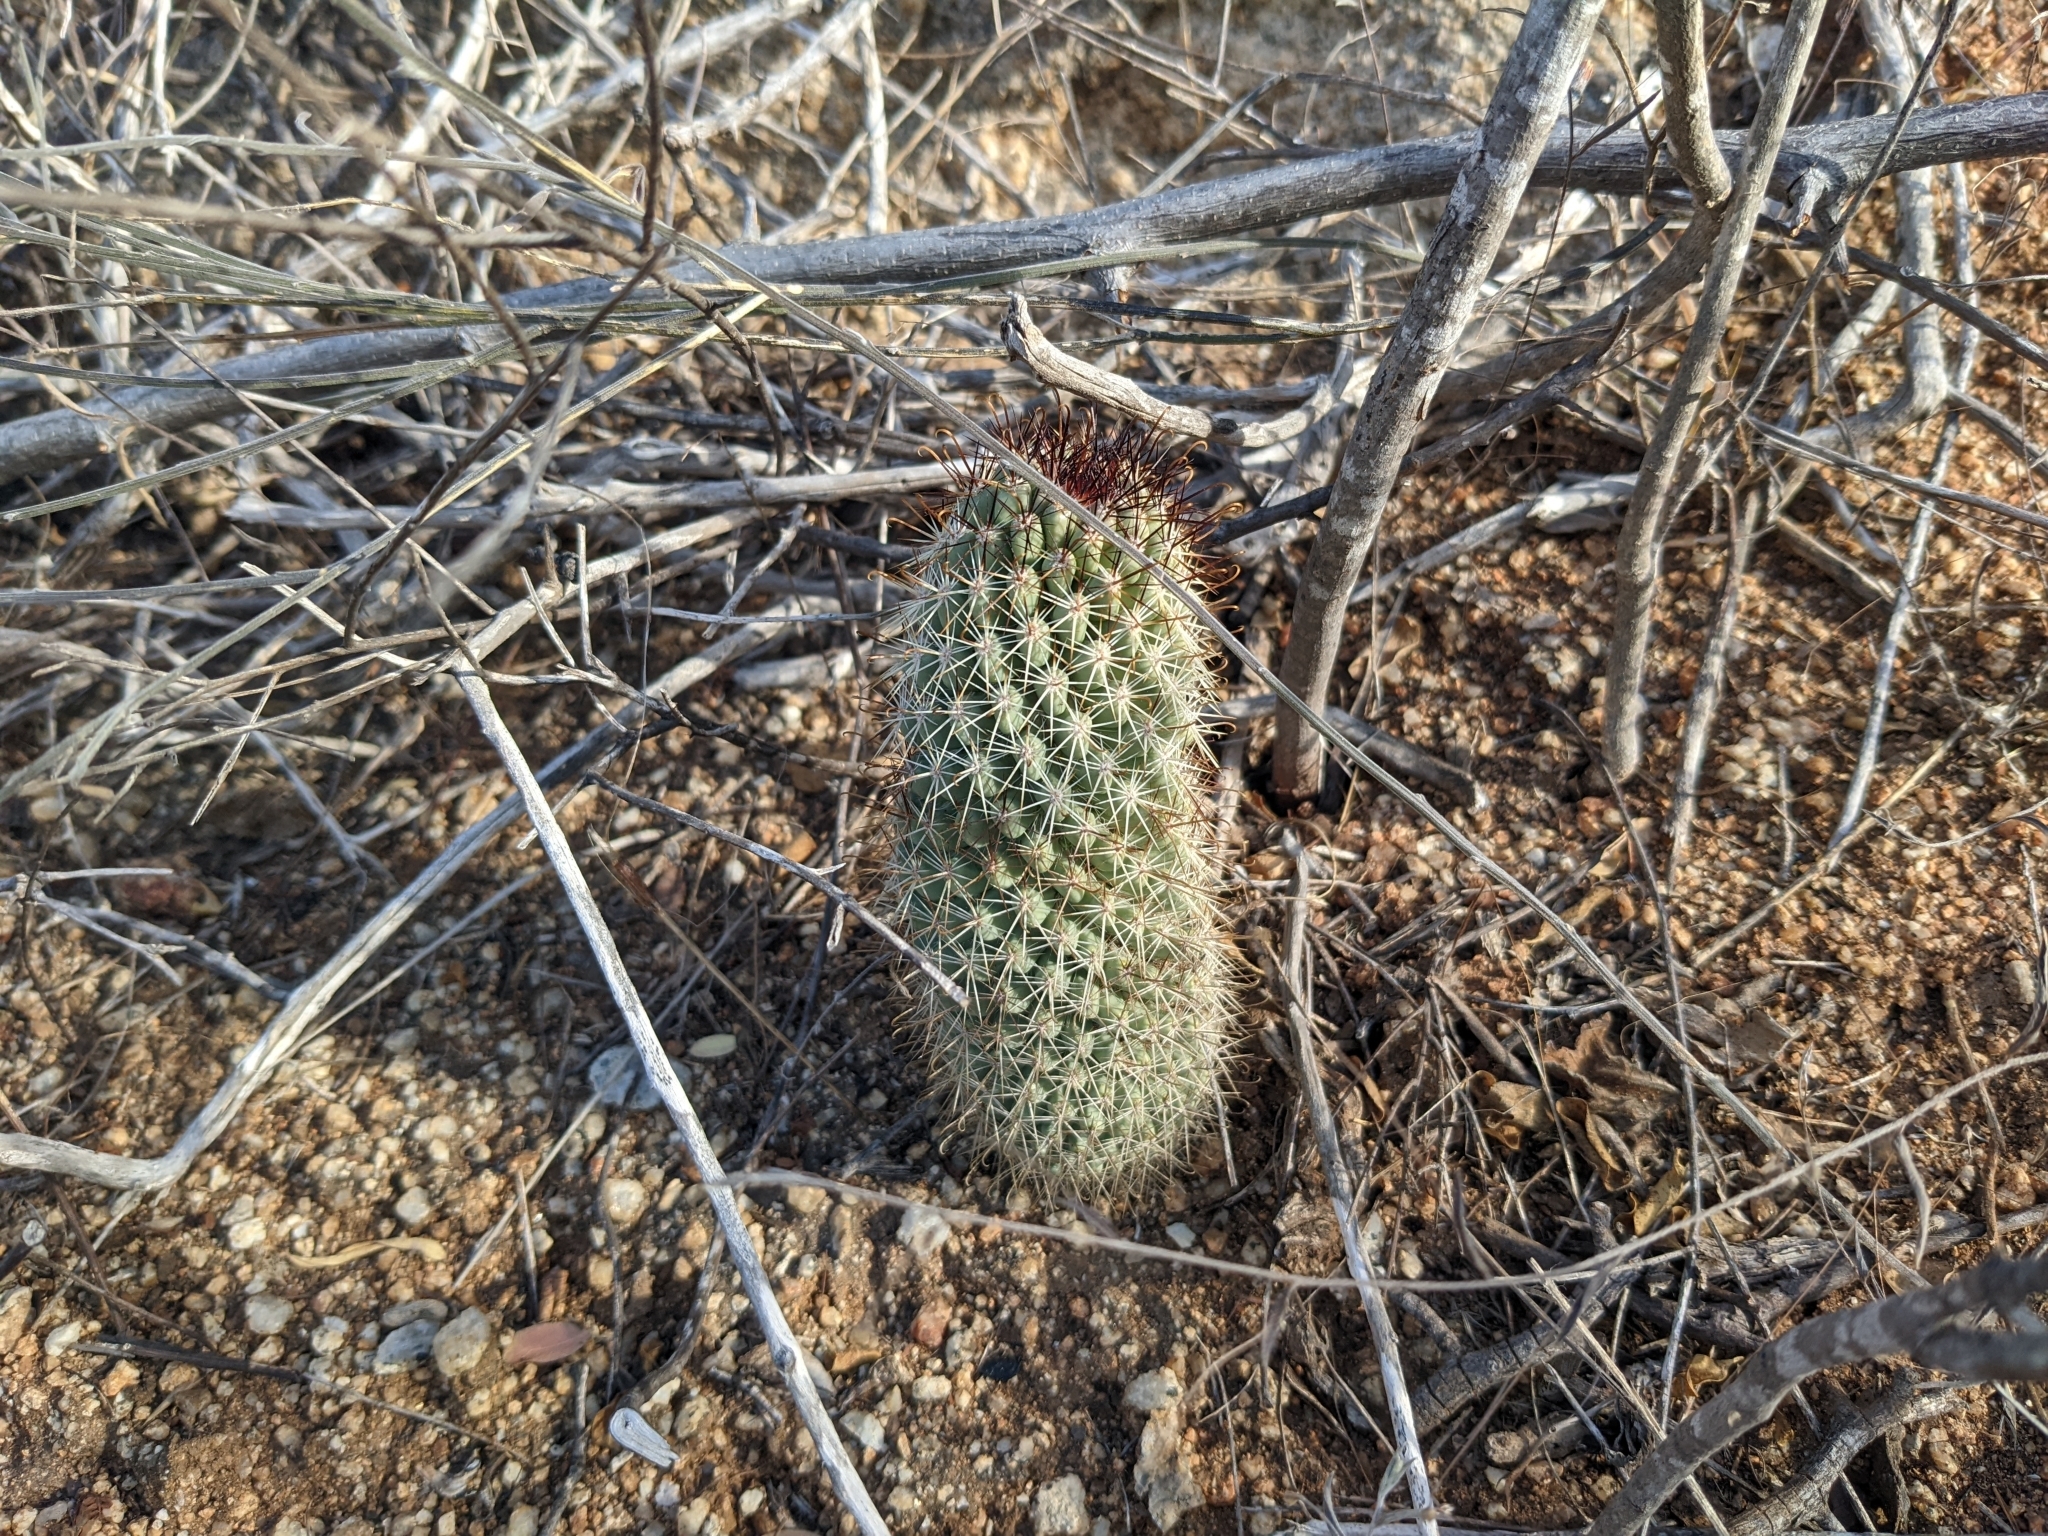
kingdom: Plantae
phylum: Tracheophyta
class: Magnoliopsida
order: Caryophyllales
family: Cactaceae
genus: Cochemiea
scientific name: Cochemiea armillata
